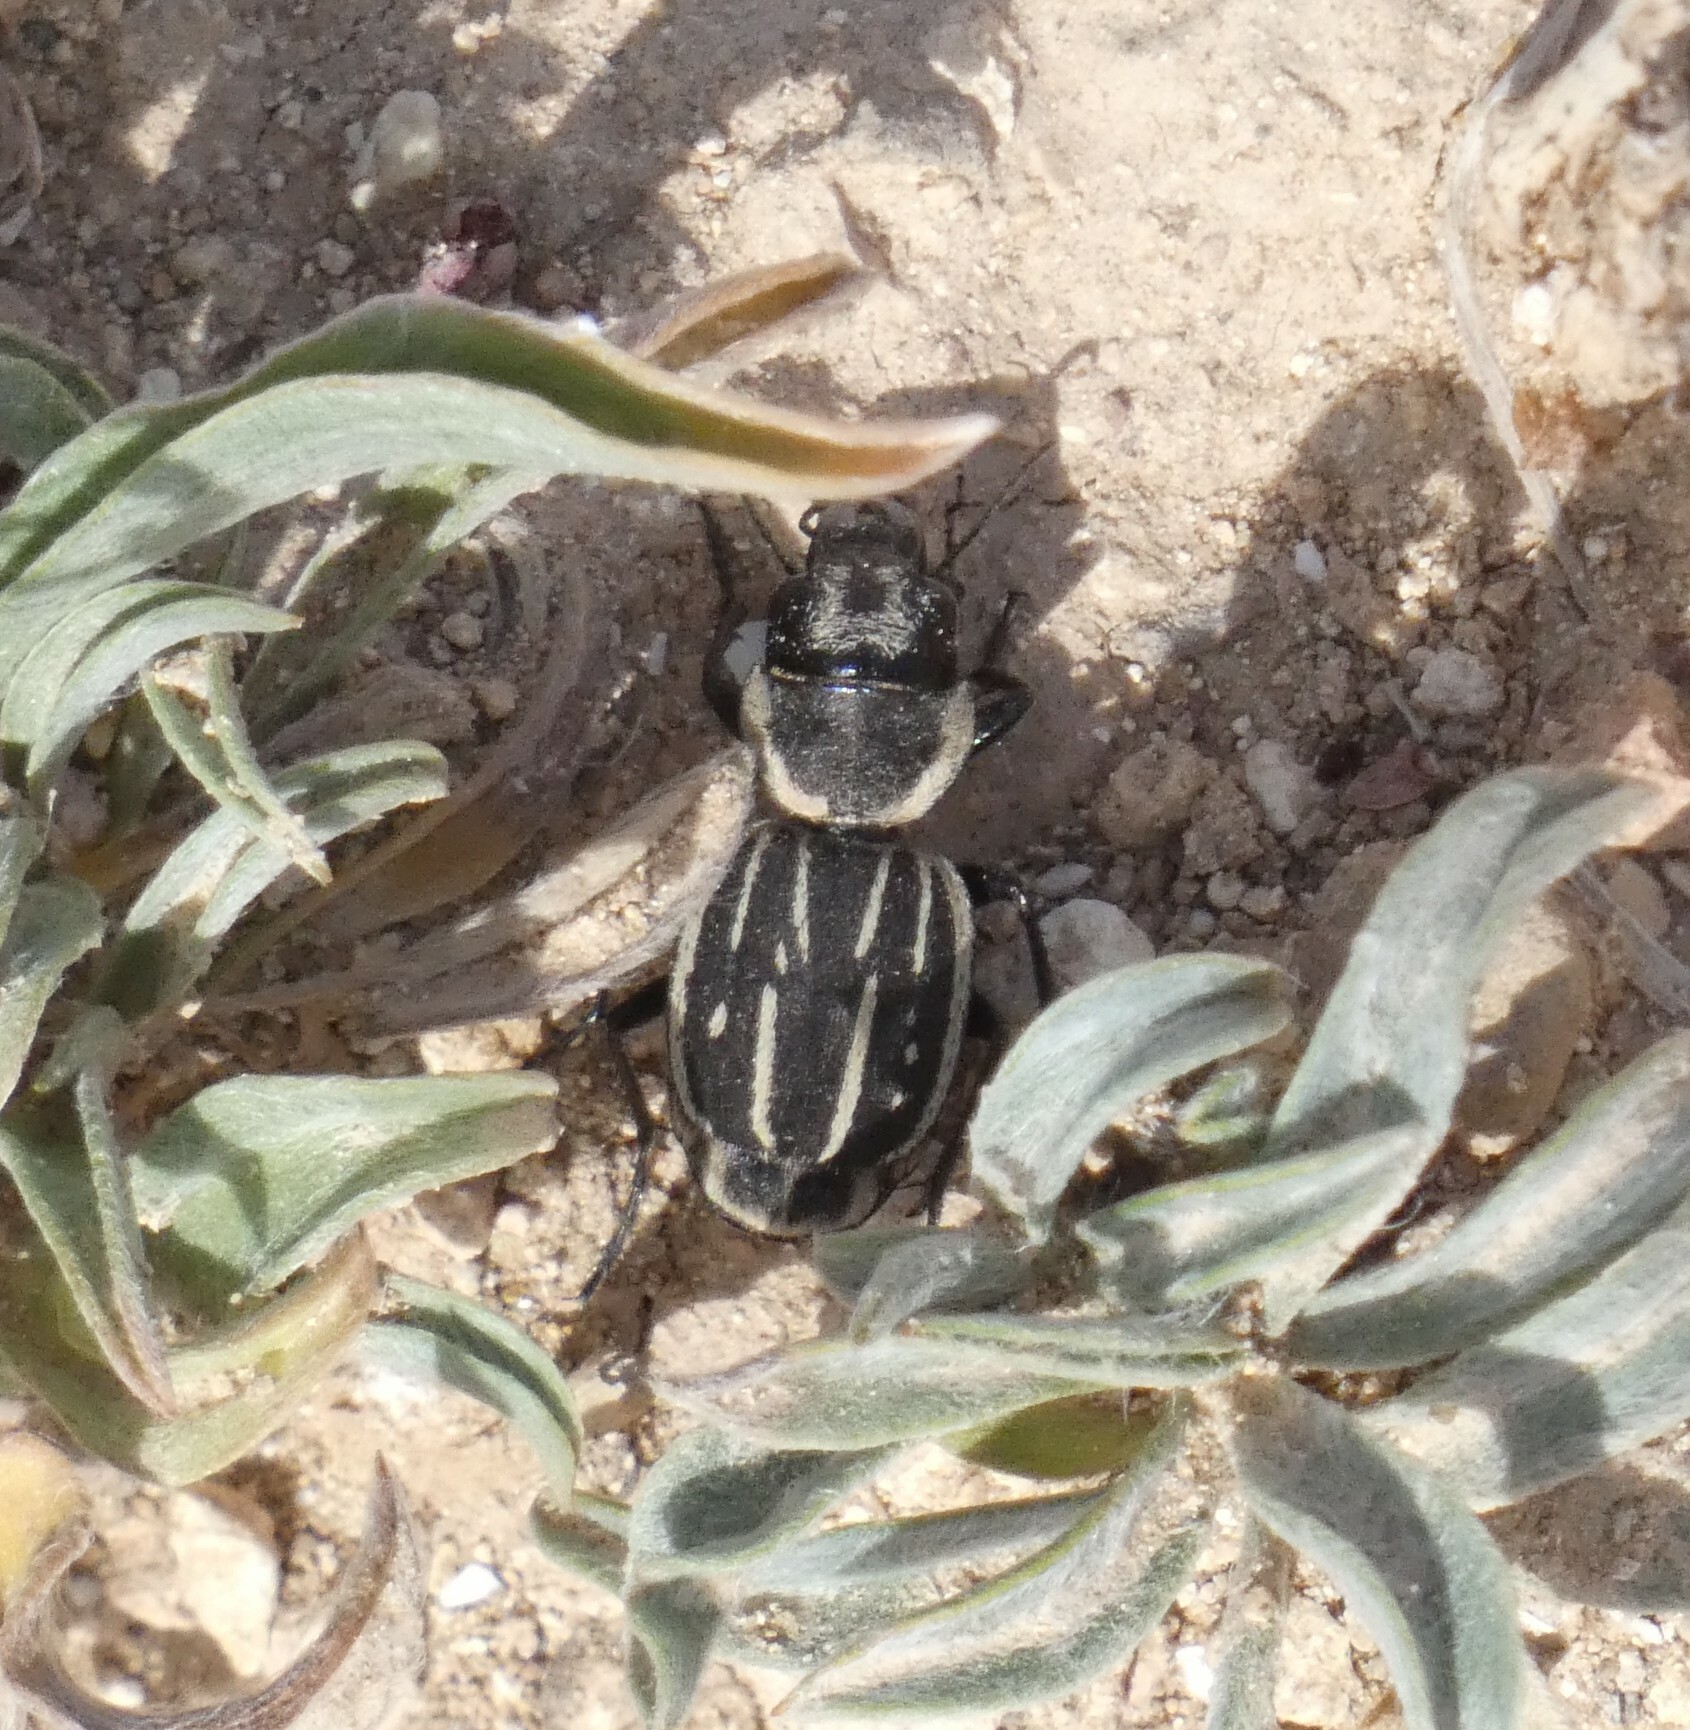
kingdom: Animalia
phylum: Arthropoda
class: Insecta
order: Coleoptera
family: Carabidae
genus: Graphipterus
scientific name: Graphipterus exclamationis
